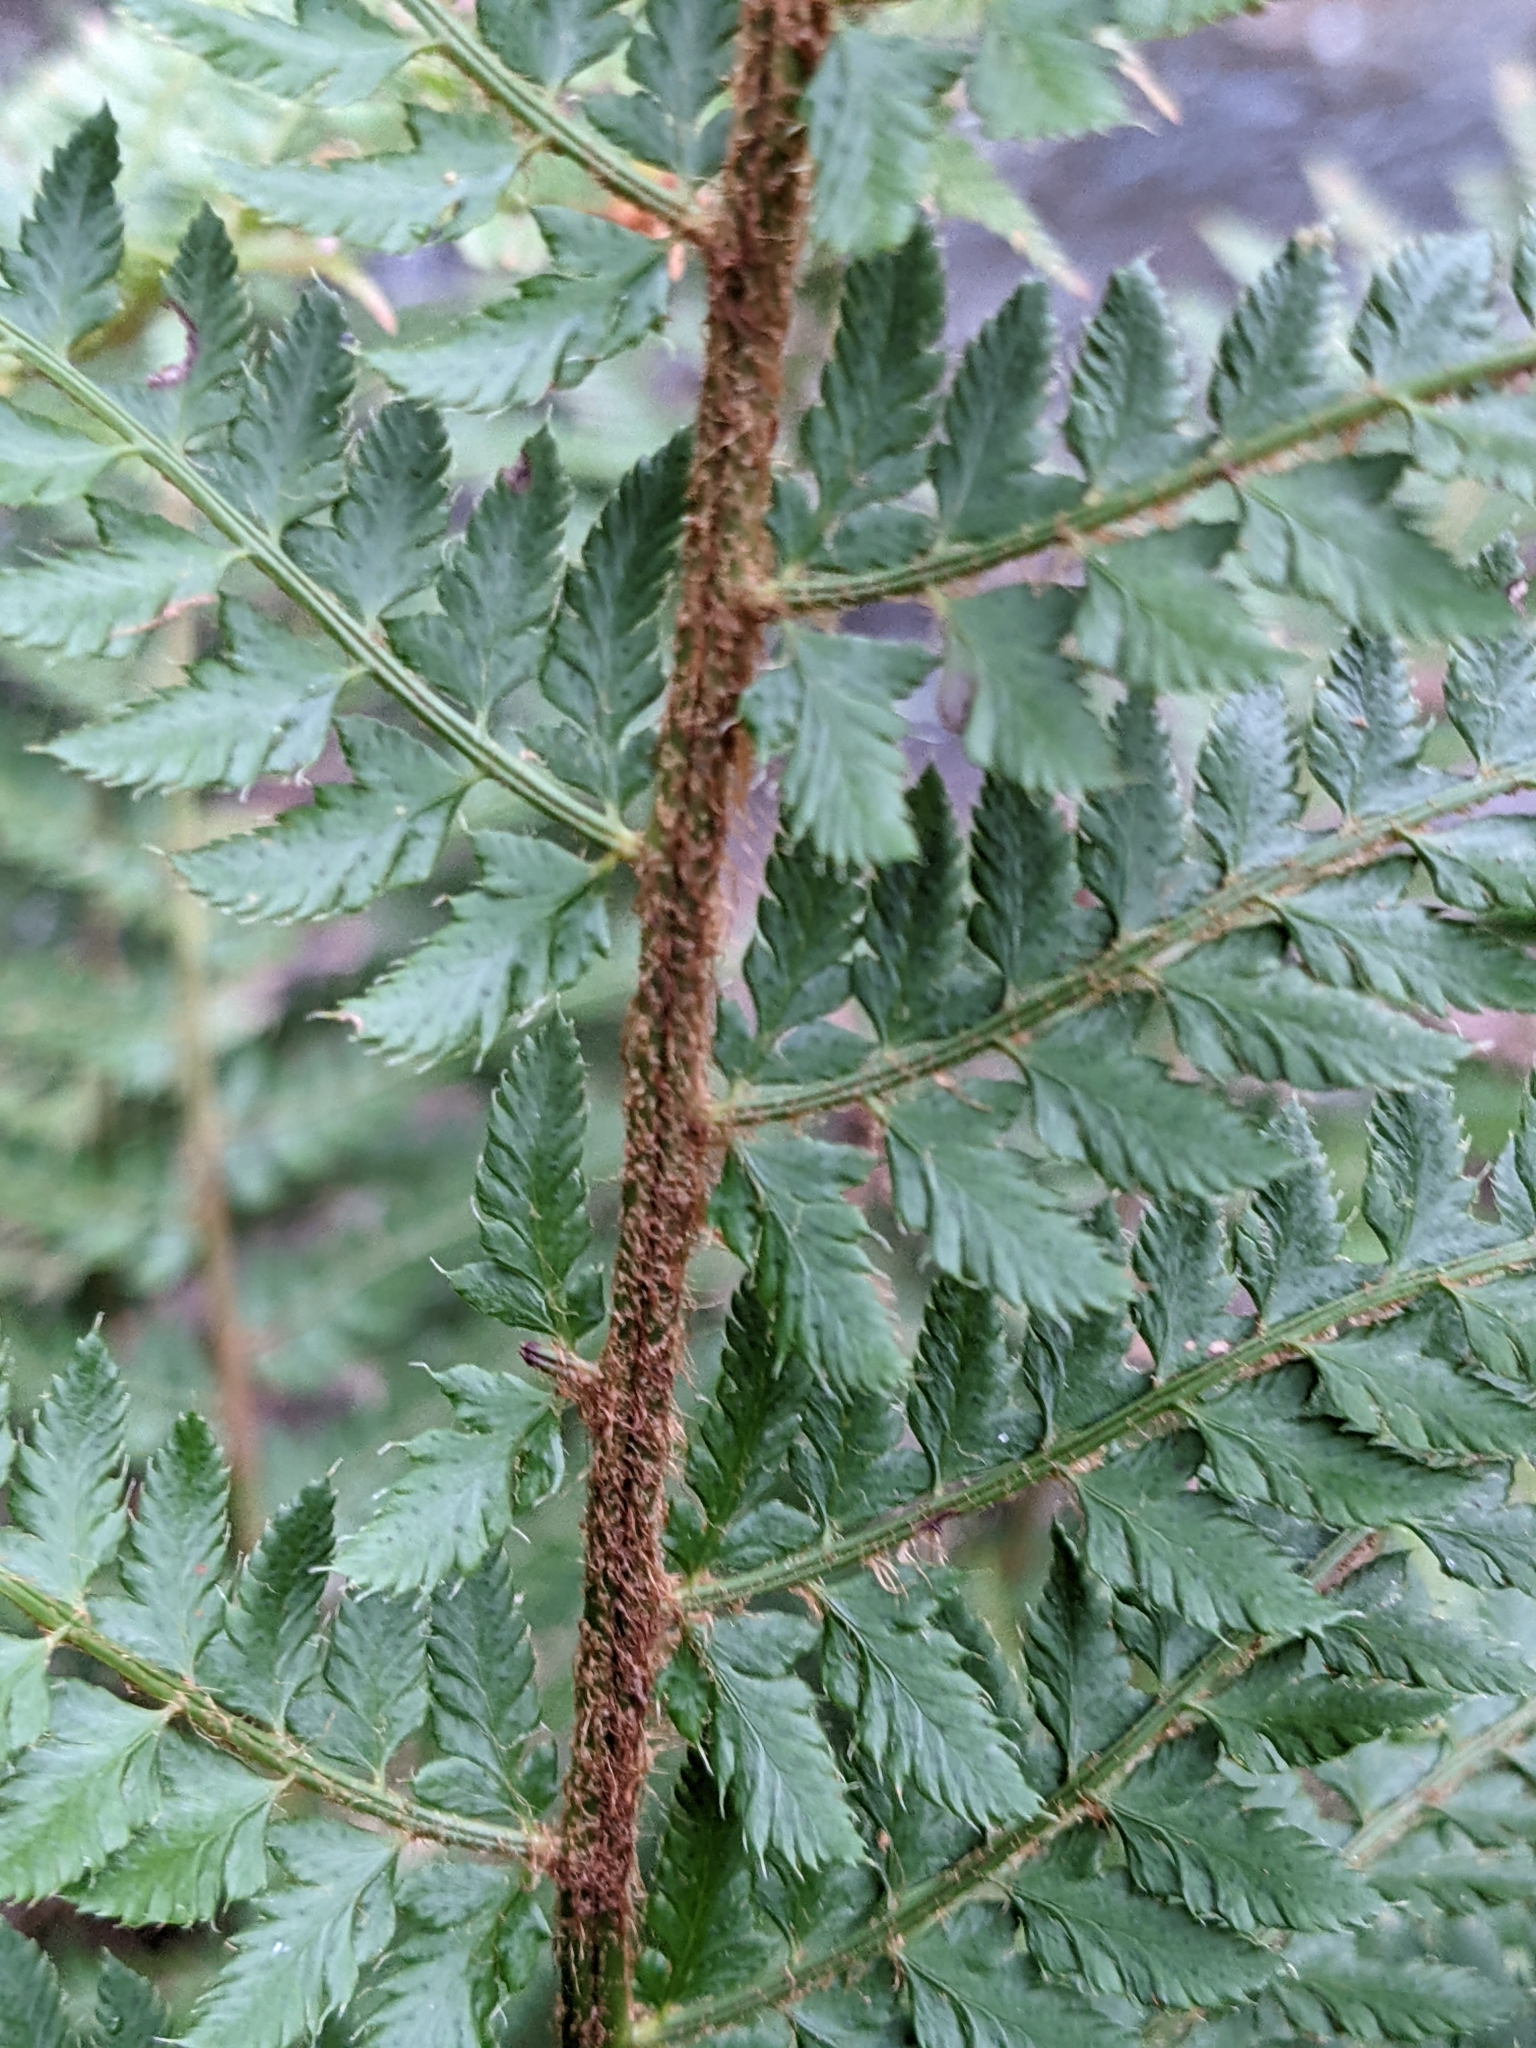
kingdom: Plantae
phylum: Tracheophyta
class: Polypodiopsida
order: Polypodiales
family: Dryopteridaceae
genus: Polystichum
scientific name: Polystichum setiferum
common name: Soft shield-fern
